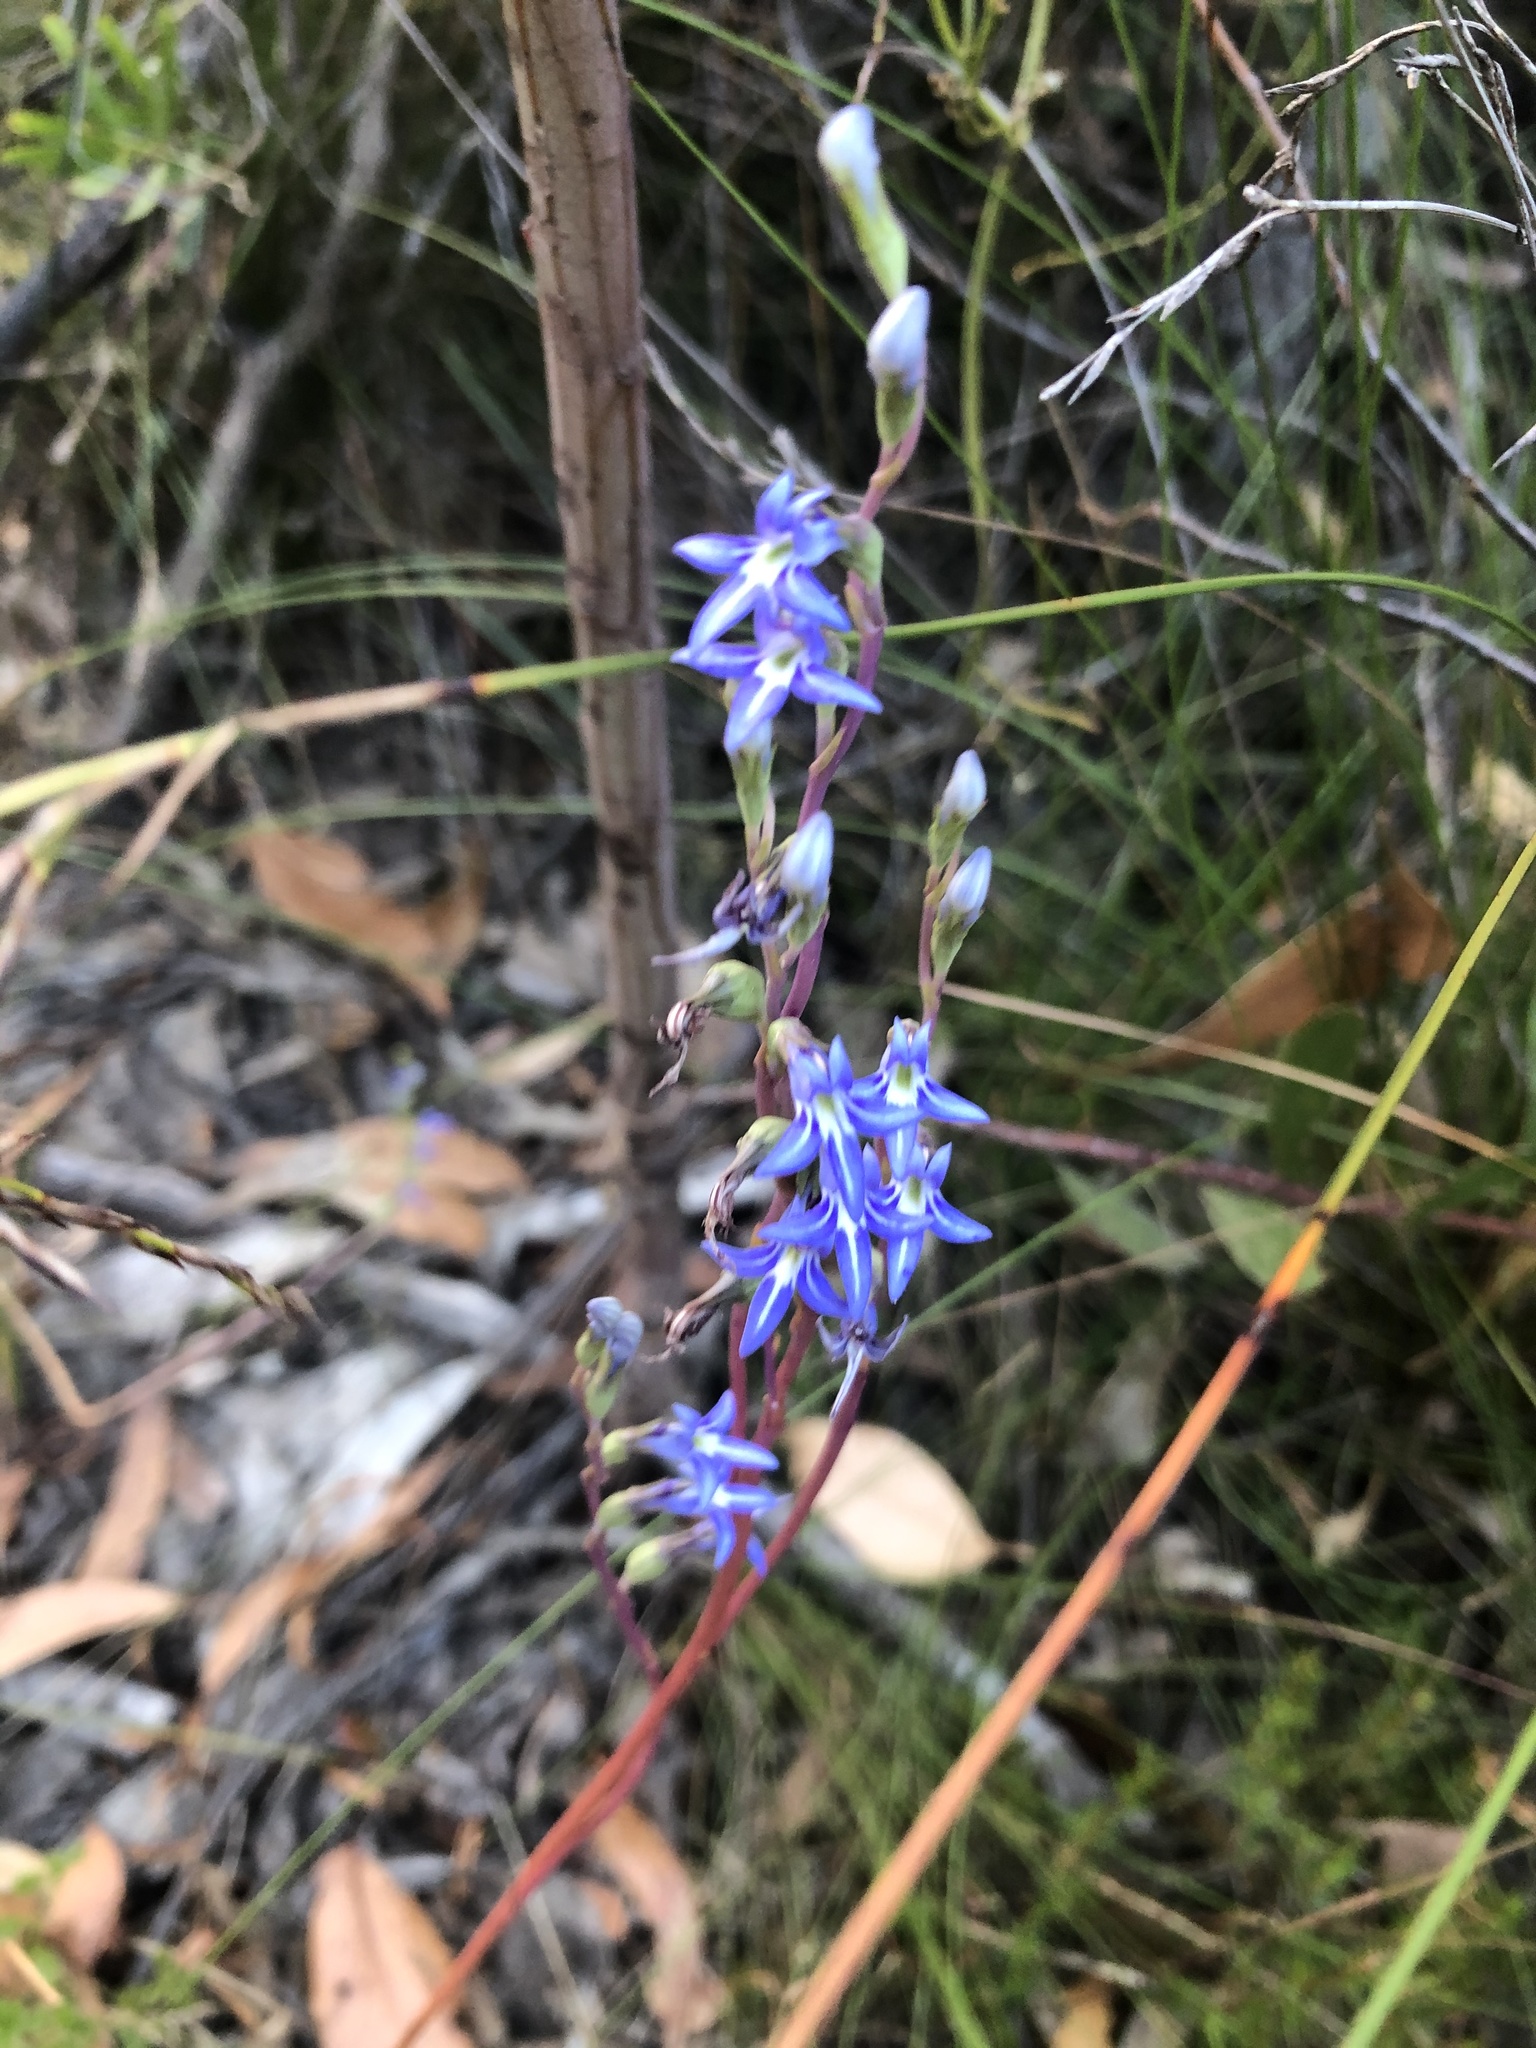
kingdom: Plantae
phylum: Tracheophyta
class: Magnoliopsida
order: Asterales
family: Campanulaceae
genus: Lobelia
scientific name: Lobelia gibbosa
